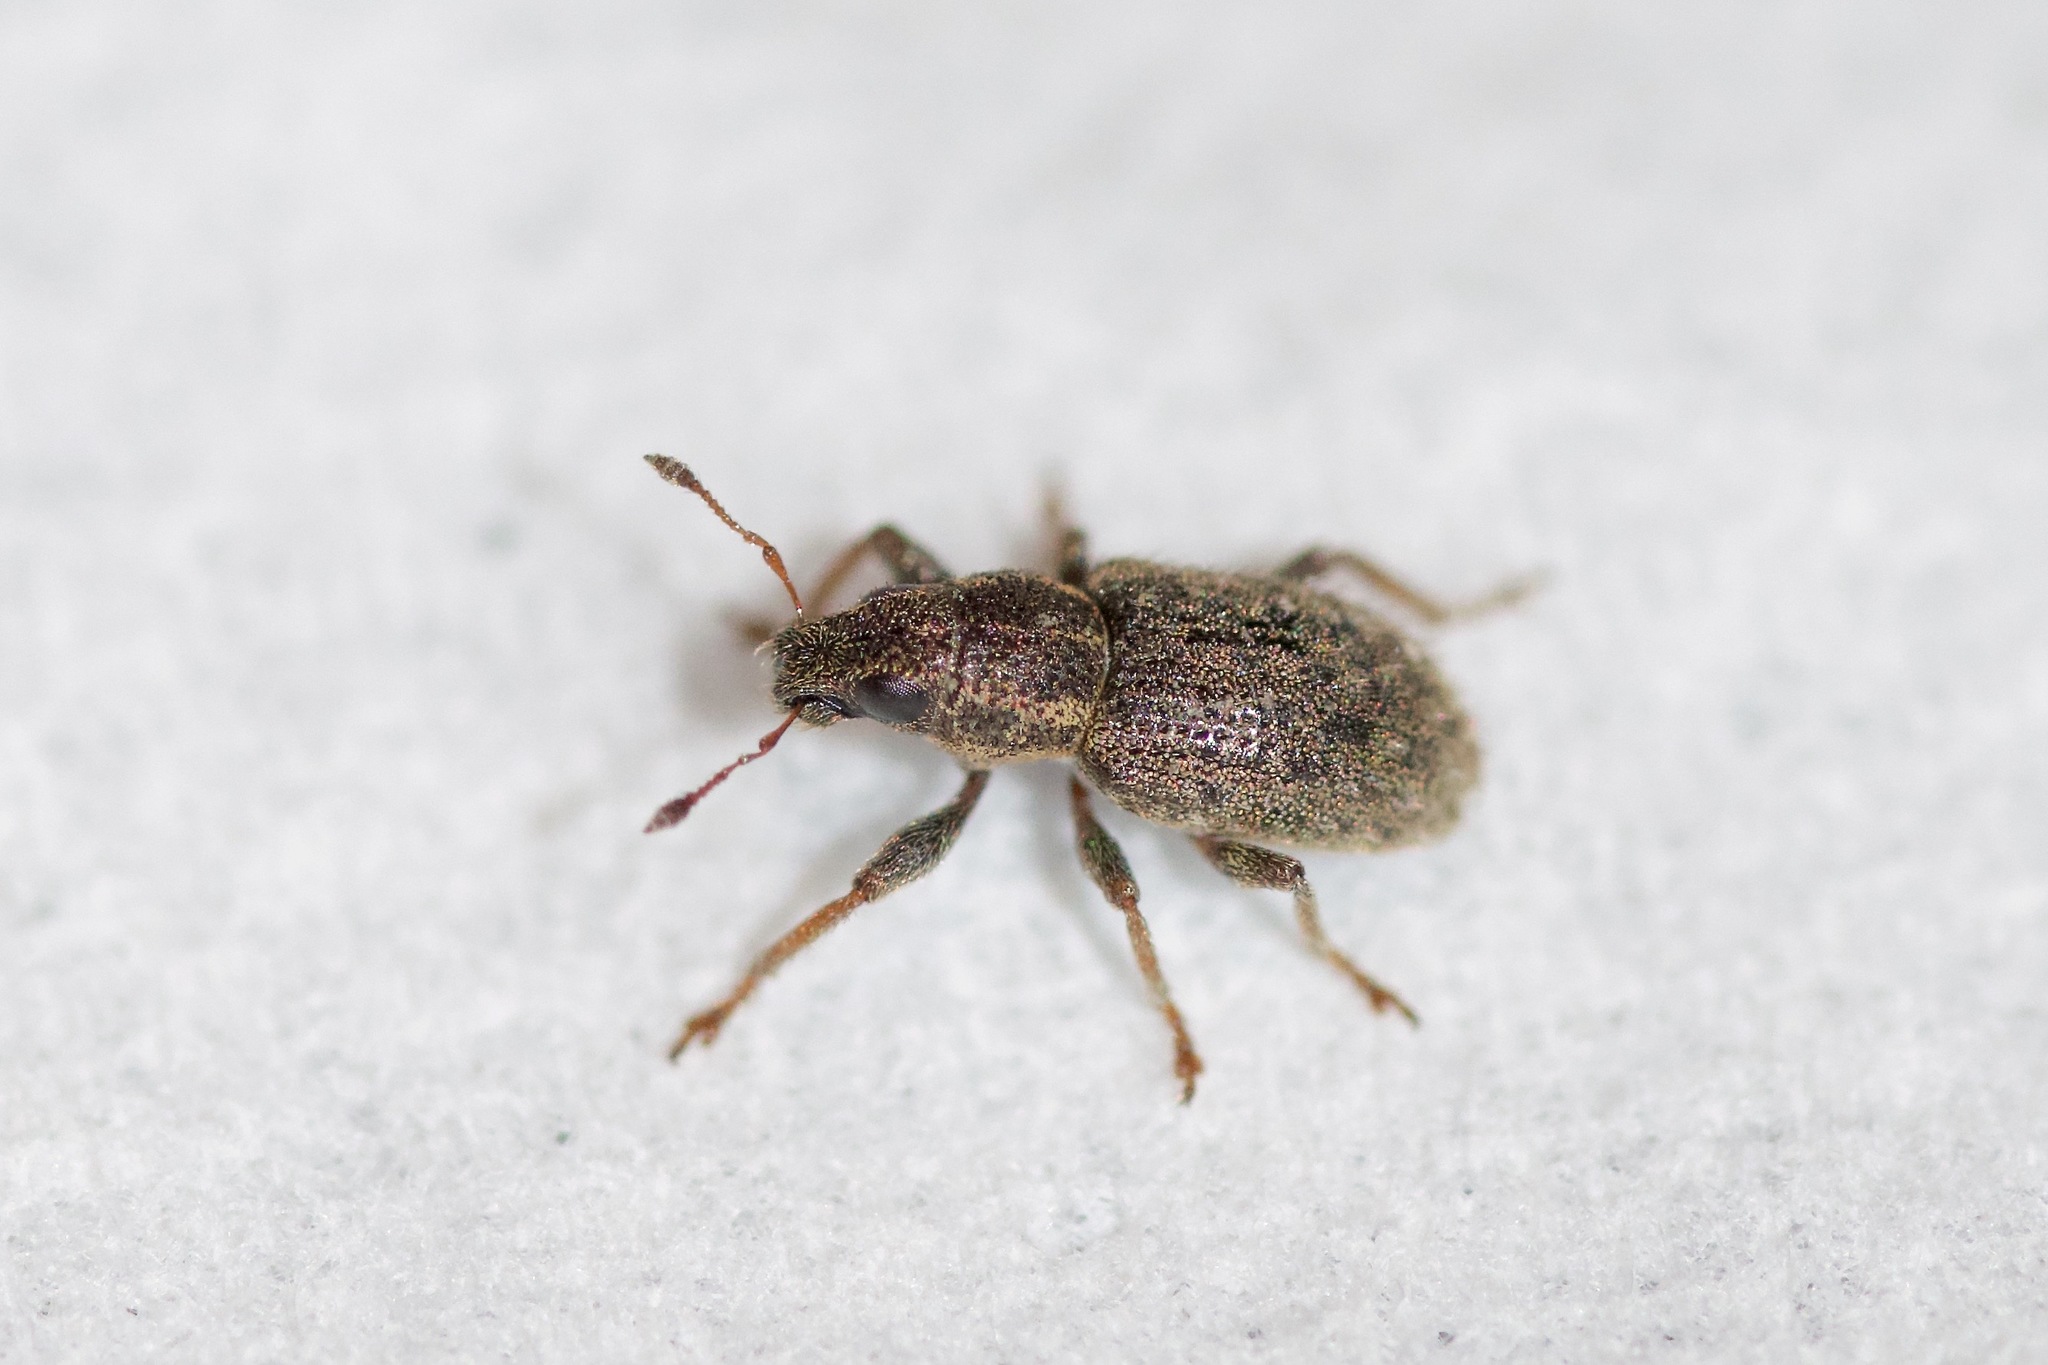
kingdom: Animalia
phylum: Arthropoda
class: Insecta
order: Coleoptera
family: Curculionidae
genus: Sitona
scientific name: Sitona hispidulus
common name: Clover weevil
